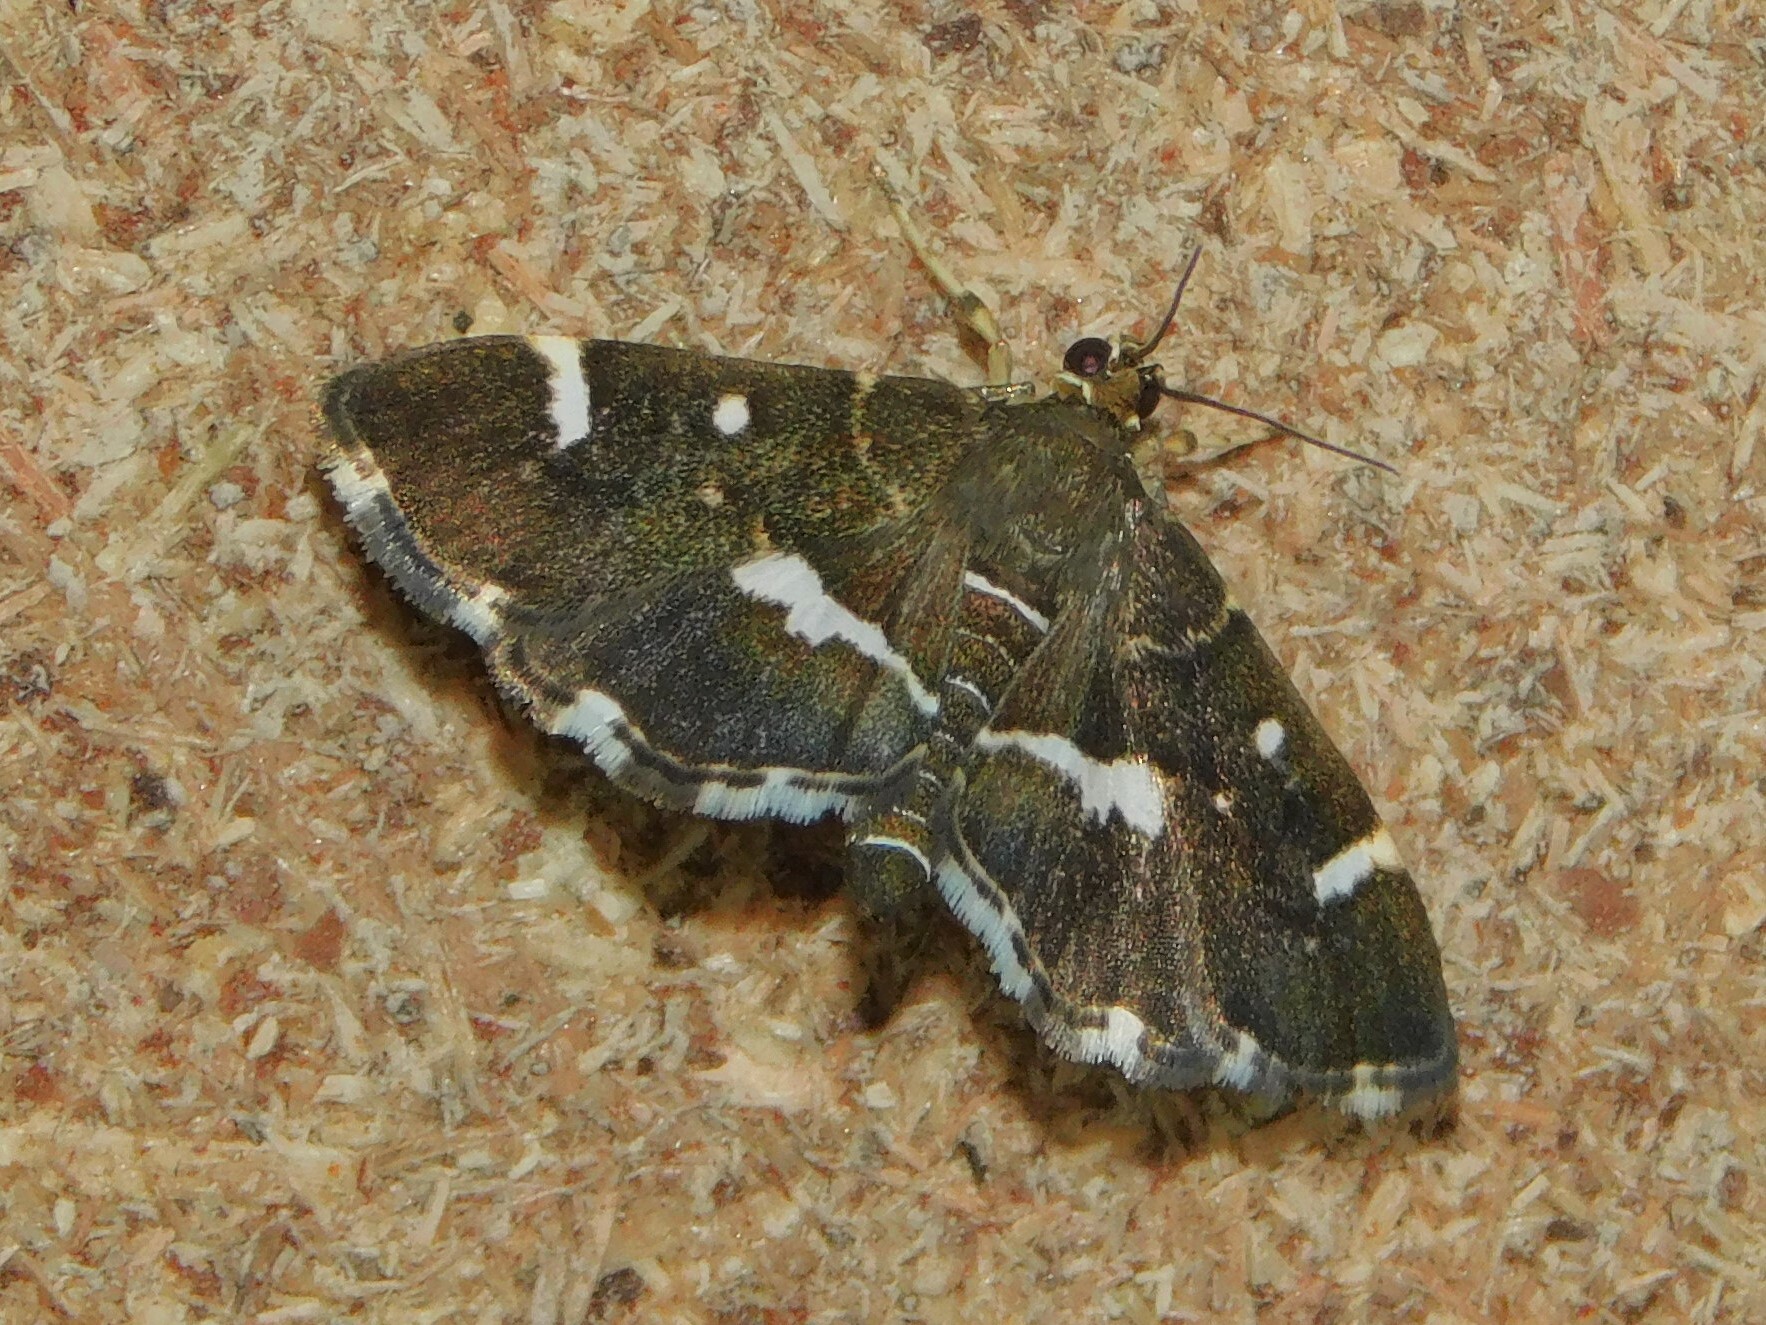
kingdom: Animalia
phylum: Arthropoda
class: Insecta
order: Lepidoptera
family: Crambidae
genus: Hymenia
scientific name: Hymenia perspectalis
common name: Spotted beet webworm
